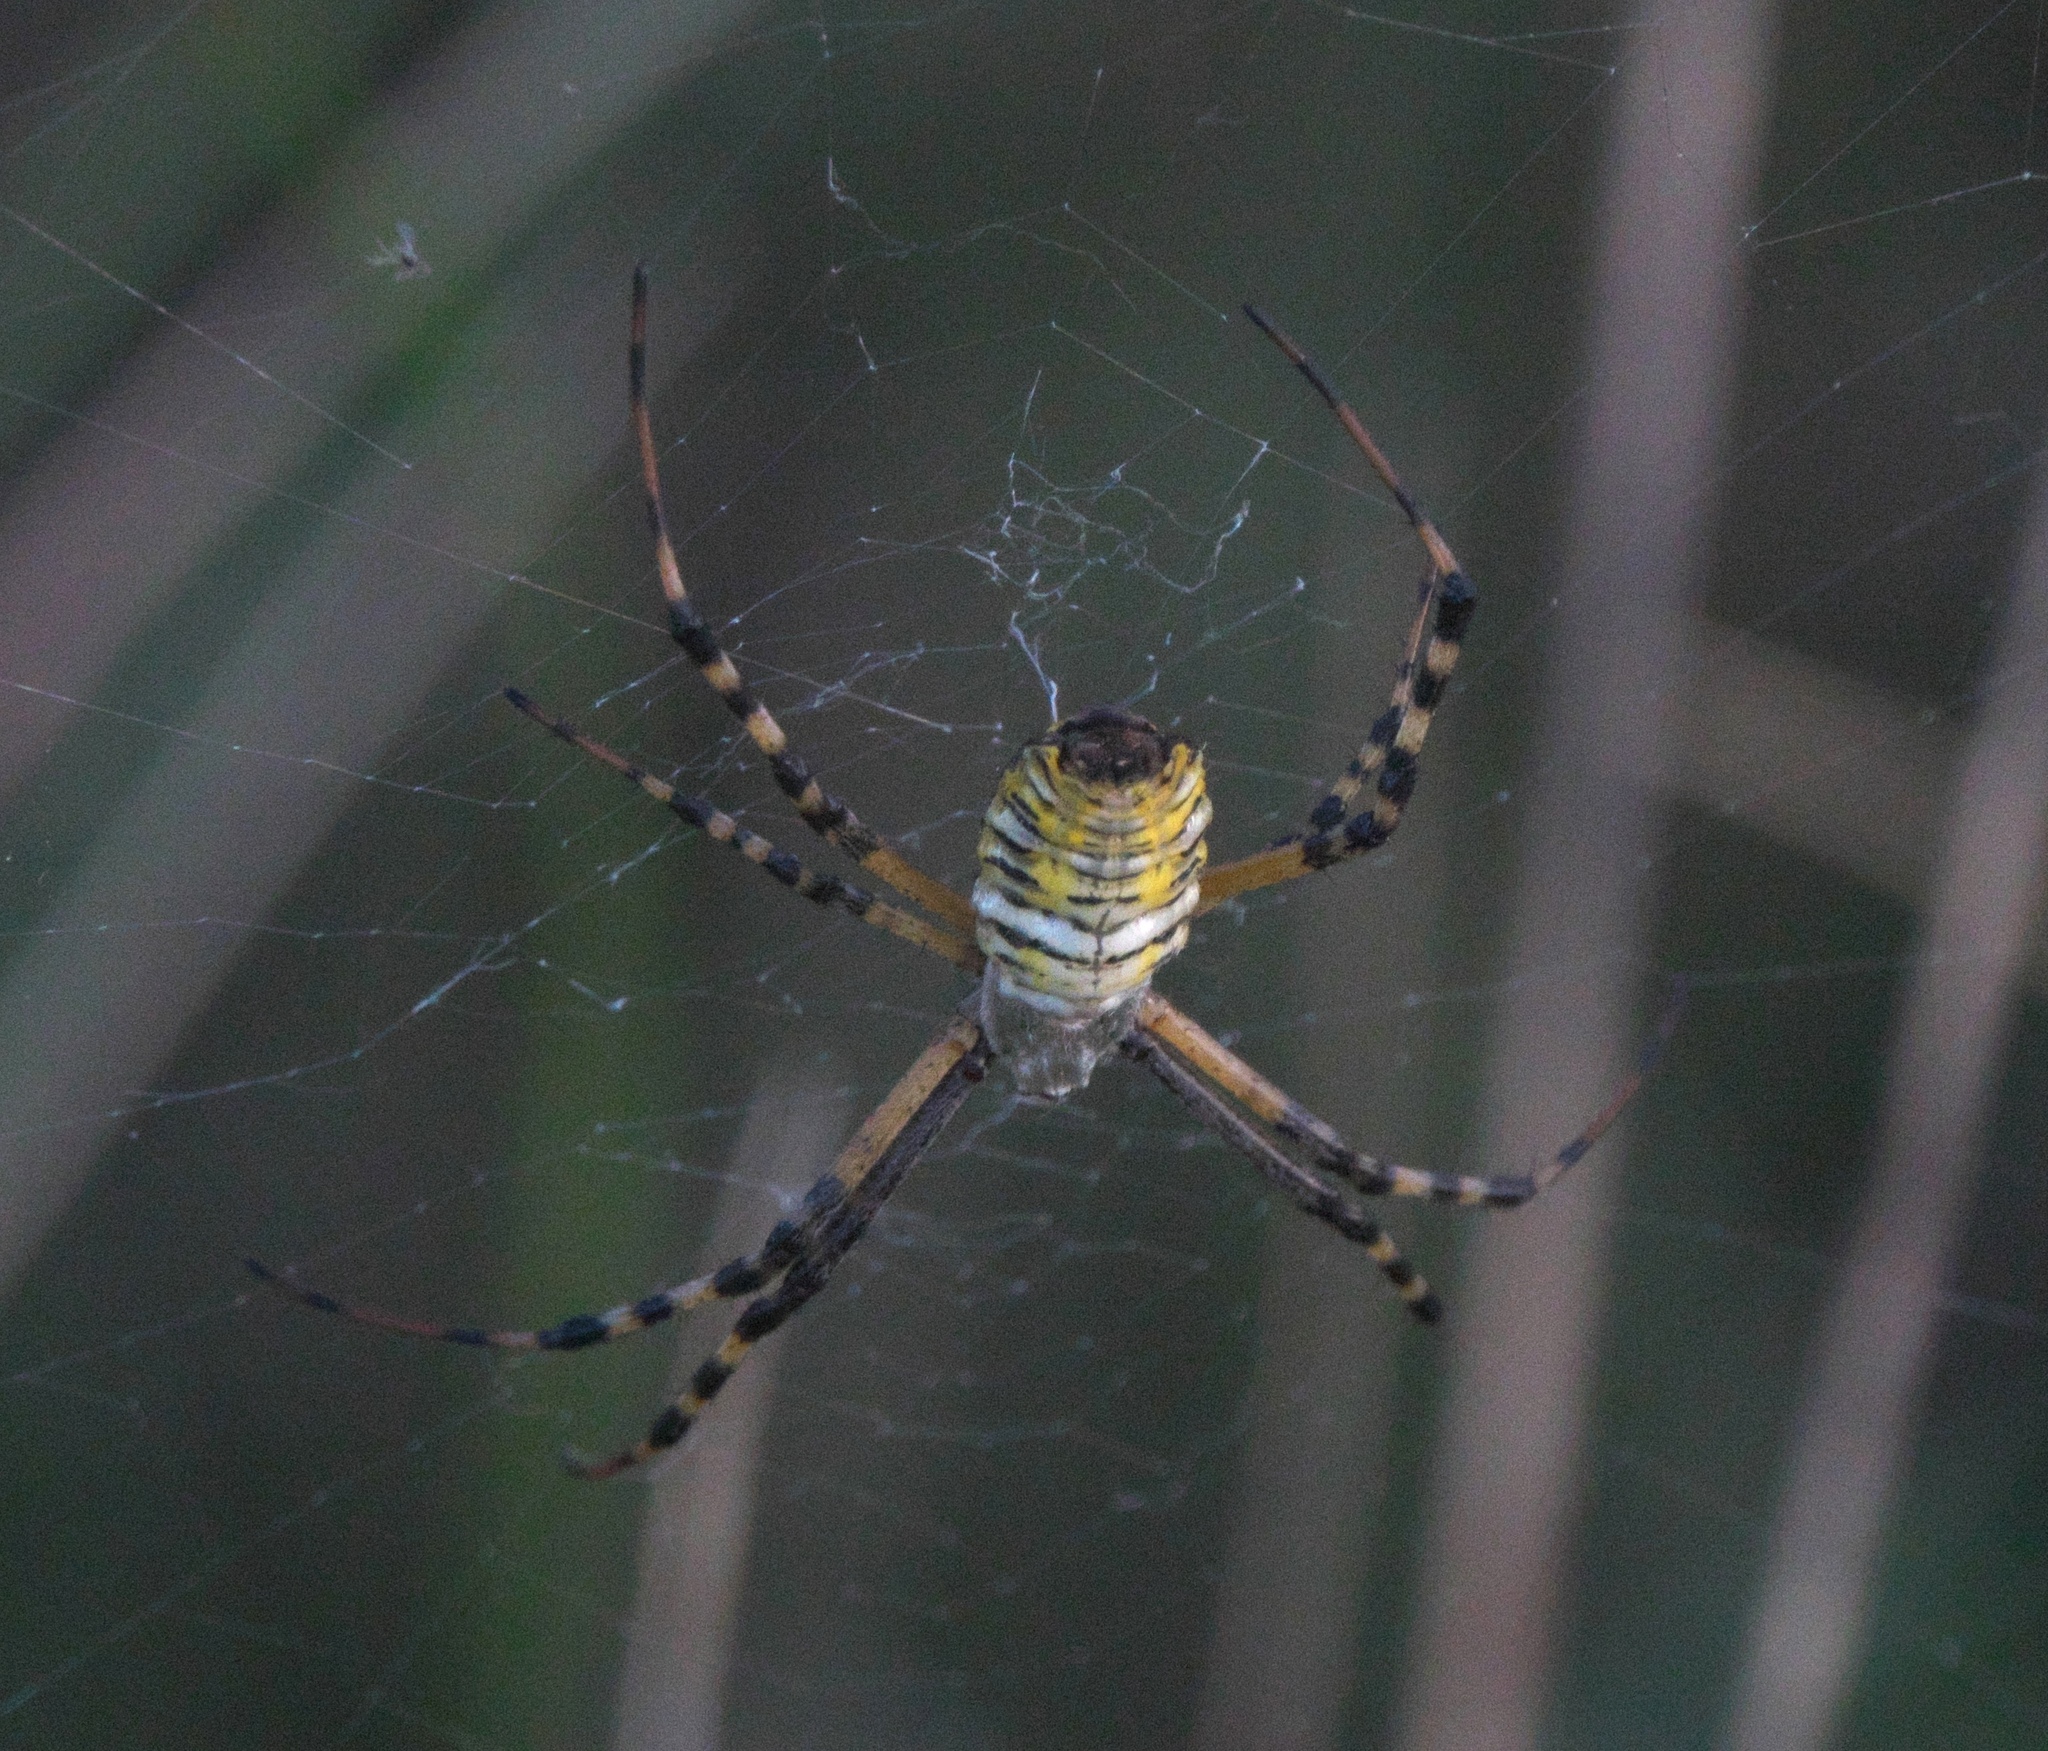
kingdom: Animalia
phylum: Arthropoda
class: Arachnida
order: Araneae
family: Araneidae
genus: Argiope
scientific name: Argiope trifasciata
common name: Banded garden spider
